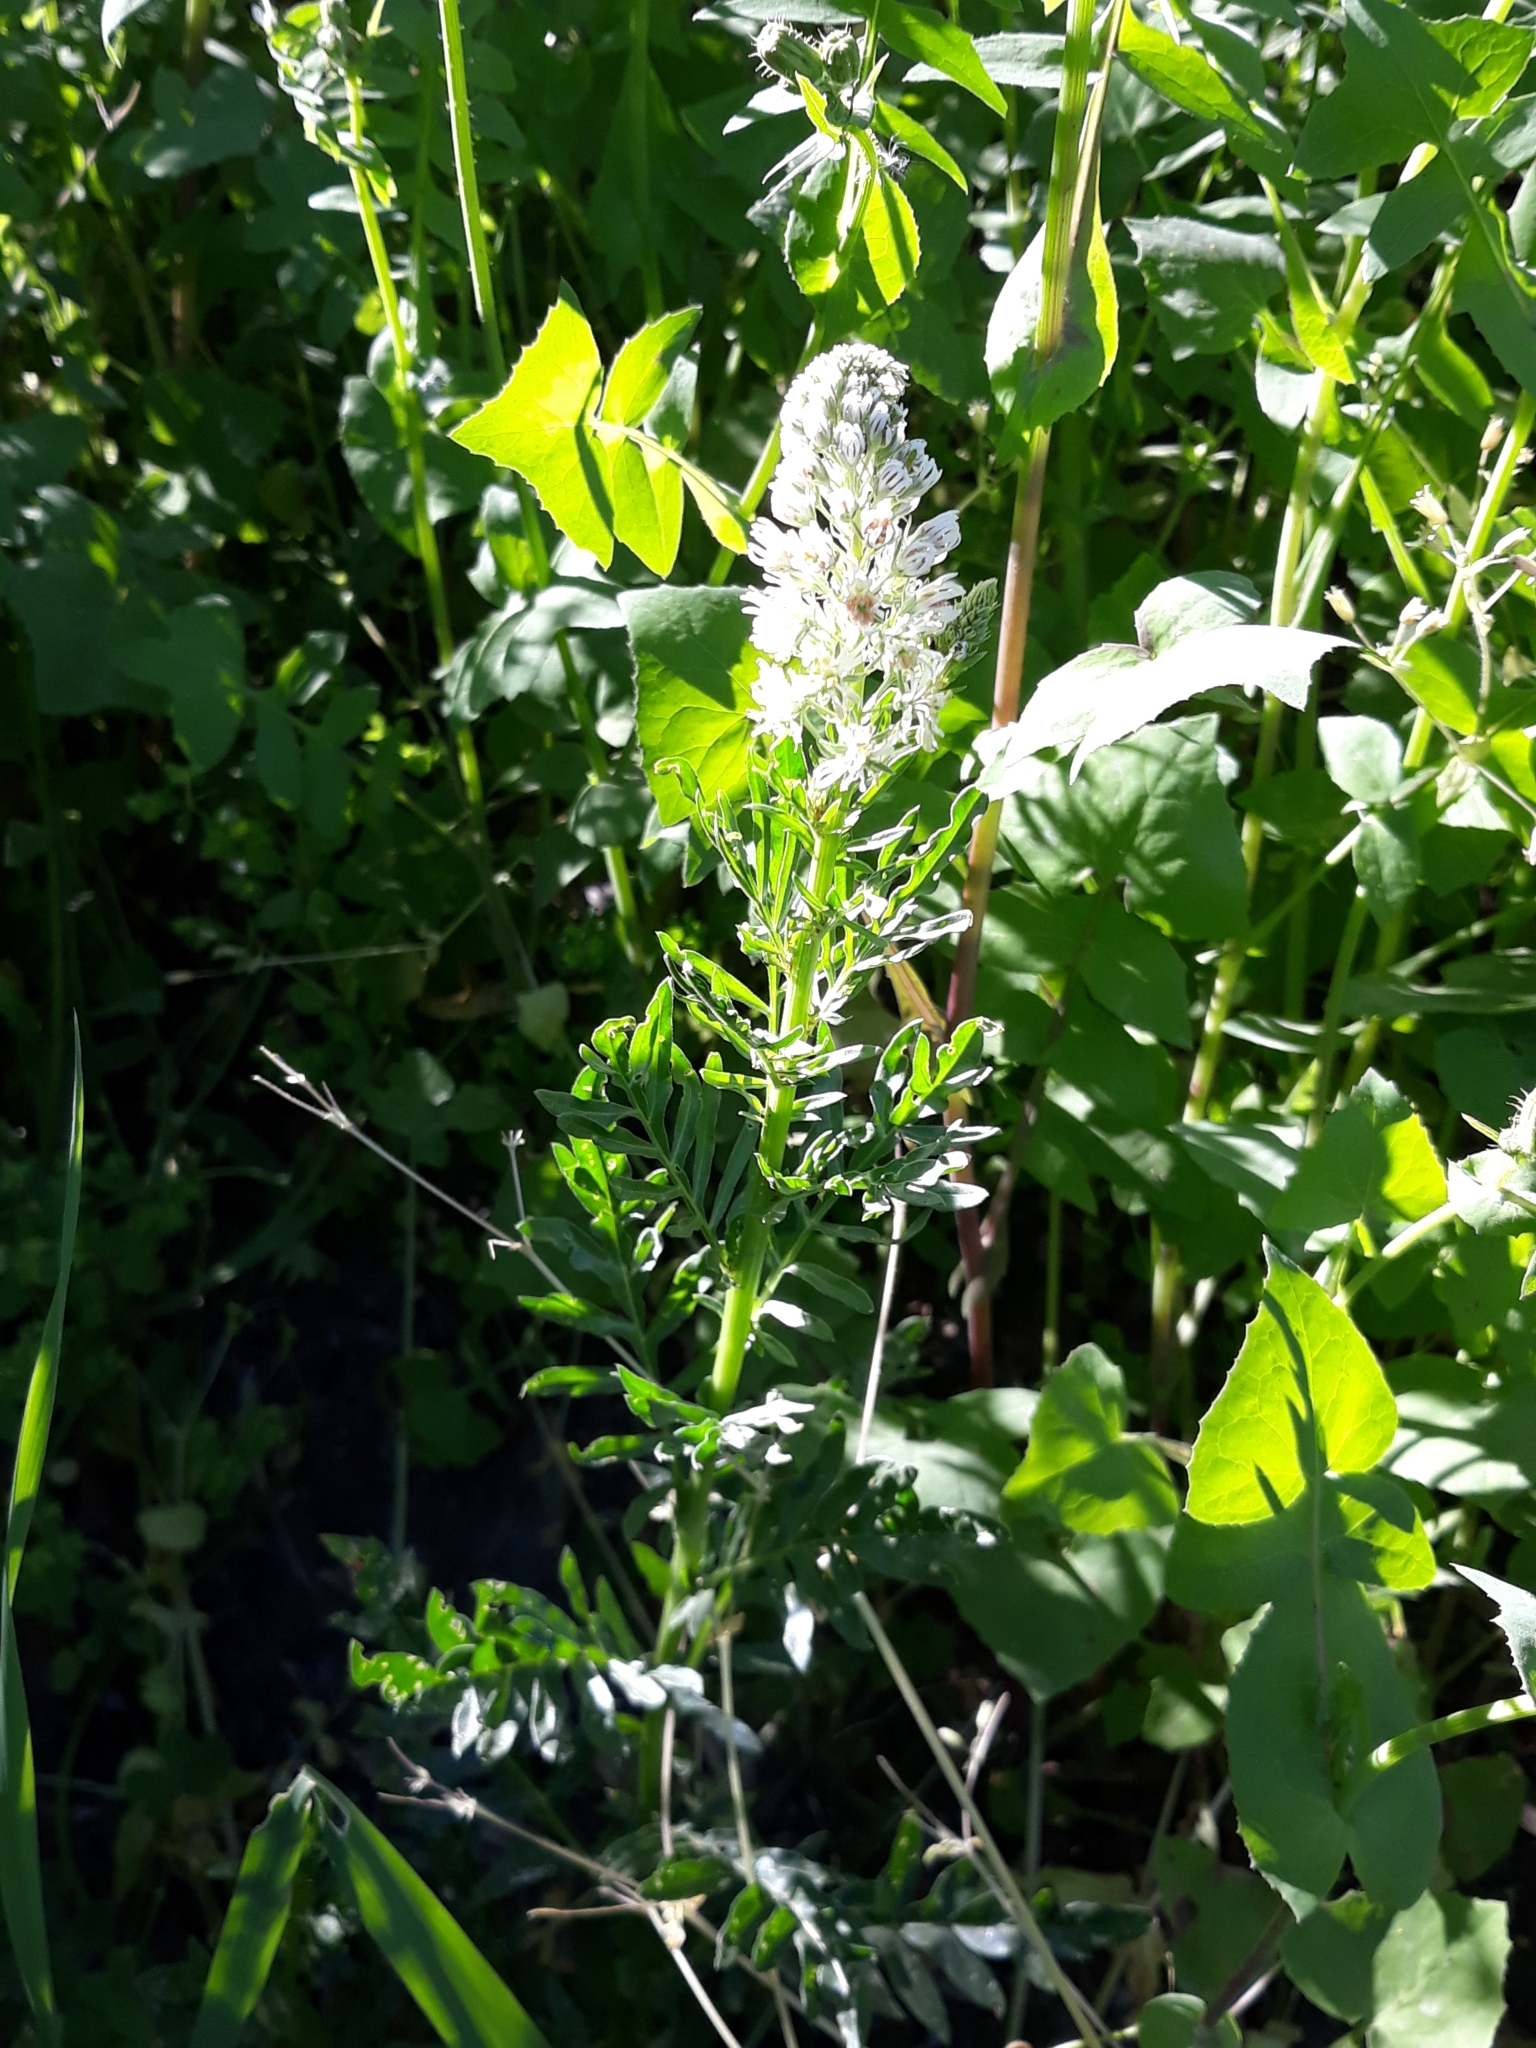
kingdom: Plantae
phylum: Tracheophyta
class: Magnoliopsida
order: Brassicales
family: Resedaceae
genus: Reseda
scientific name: Reseda alba
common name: White mignonette
